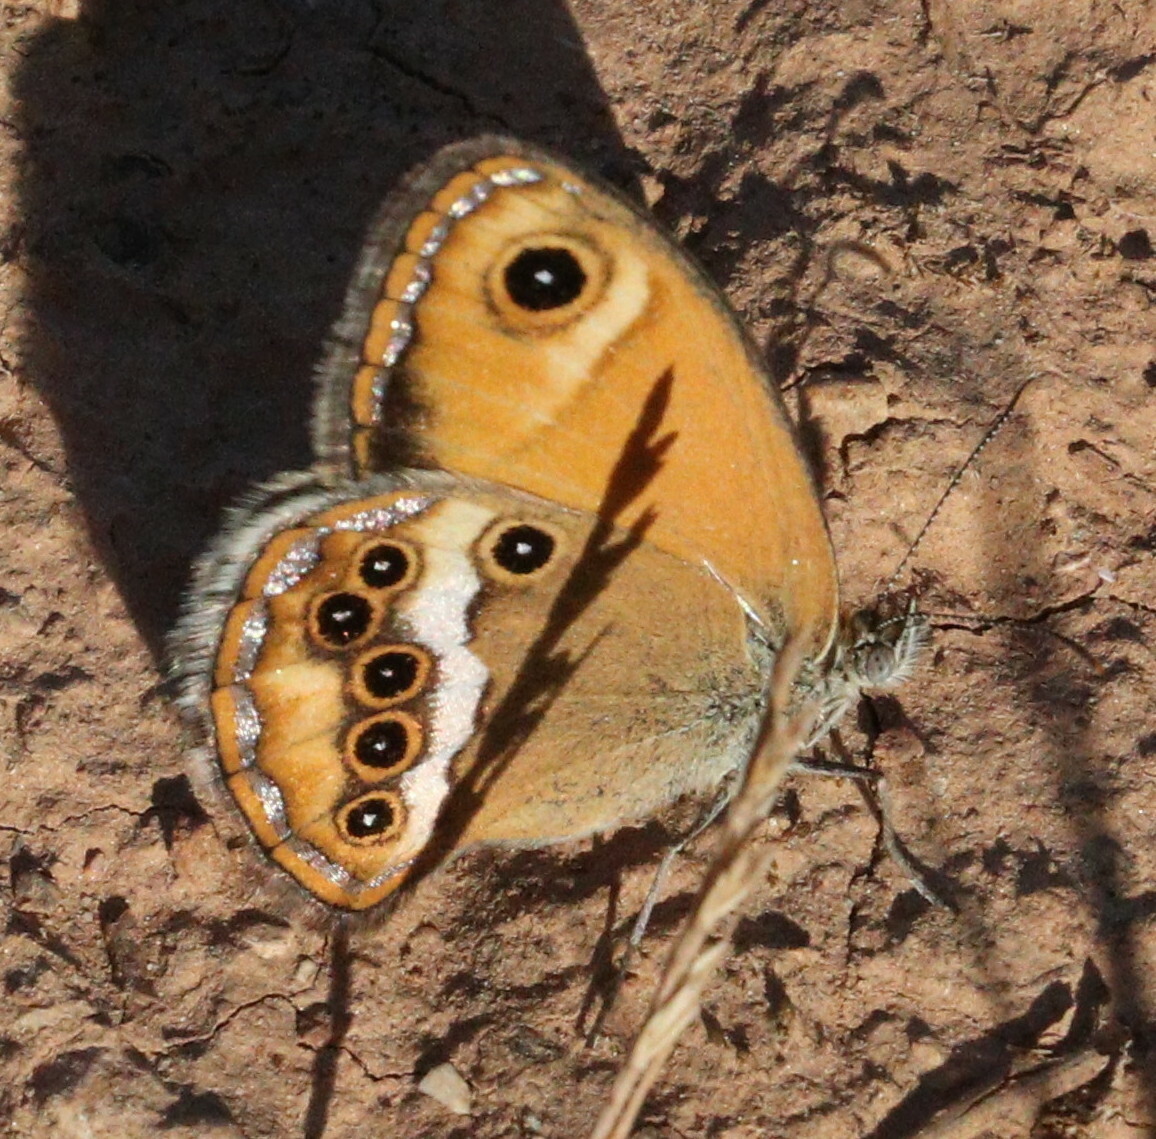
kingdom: Animalia
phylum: Arthropoda
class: Insecta
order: Lepidoptera
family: Nymphalidae
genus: Coenonympha
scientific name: Coenonympha dorus
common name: Dusky heath
